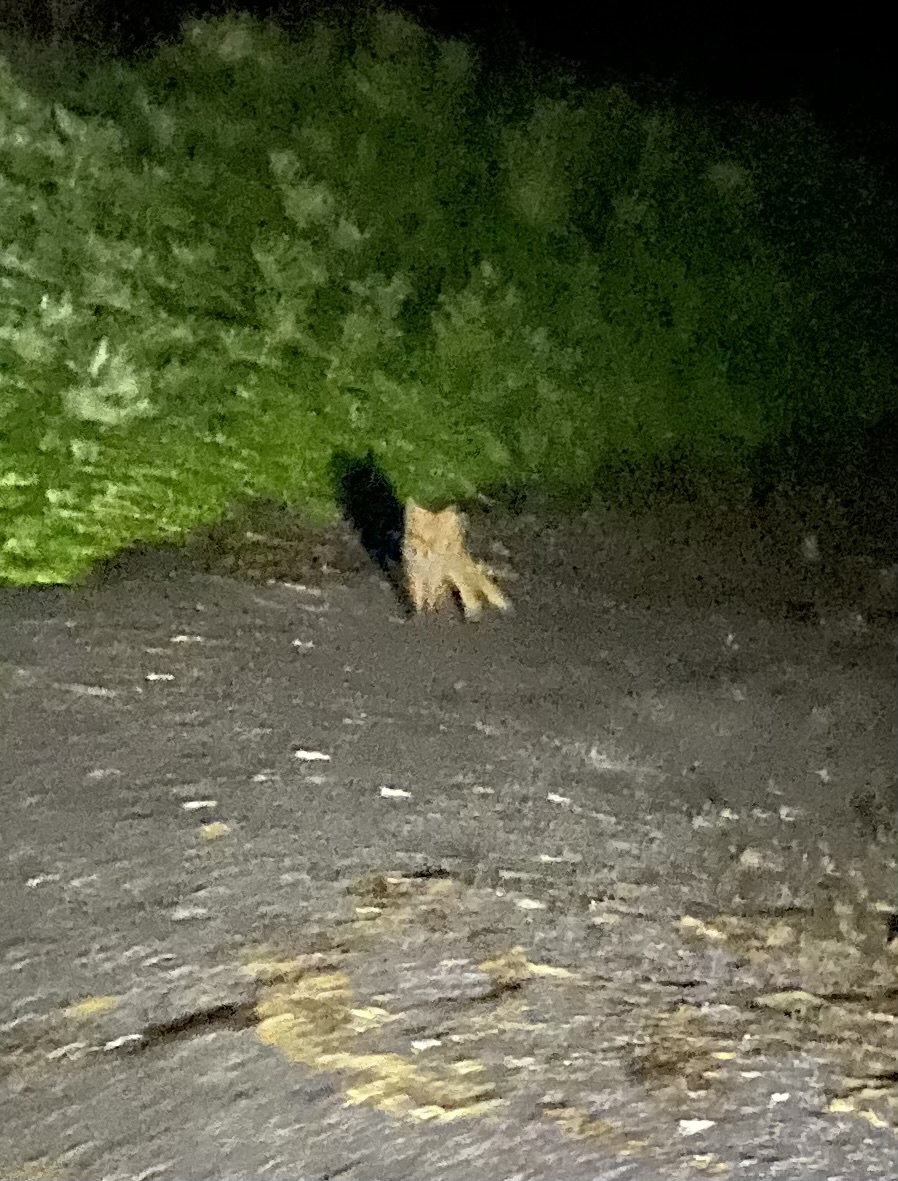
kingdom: Animalia
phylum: Chordata
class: Mammalia
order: Carnivora
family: Canidae
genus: Vulpes
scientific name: Vulpes vulpes
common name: Red fox
